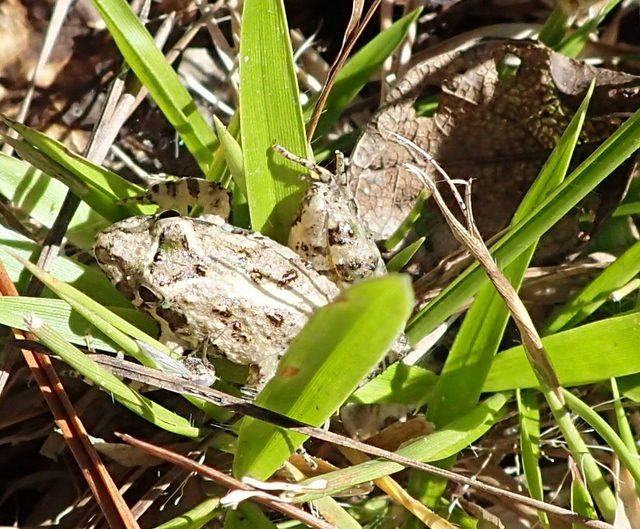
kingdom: Animalia
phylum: Chordata
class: Amphibia
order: Anura
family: Hylidae
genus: Acris
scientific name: Acris gryllus
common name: Southern cricket frog
